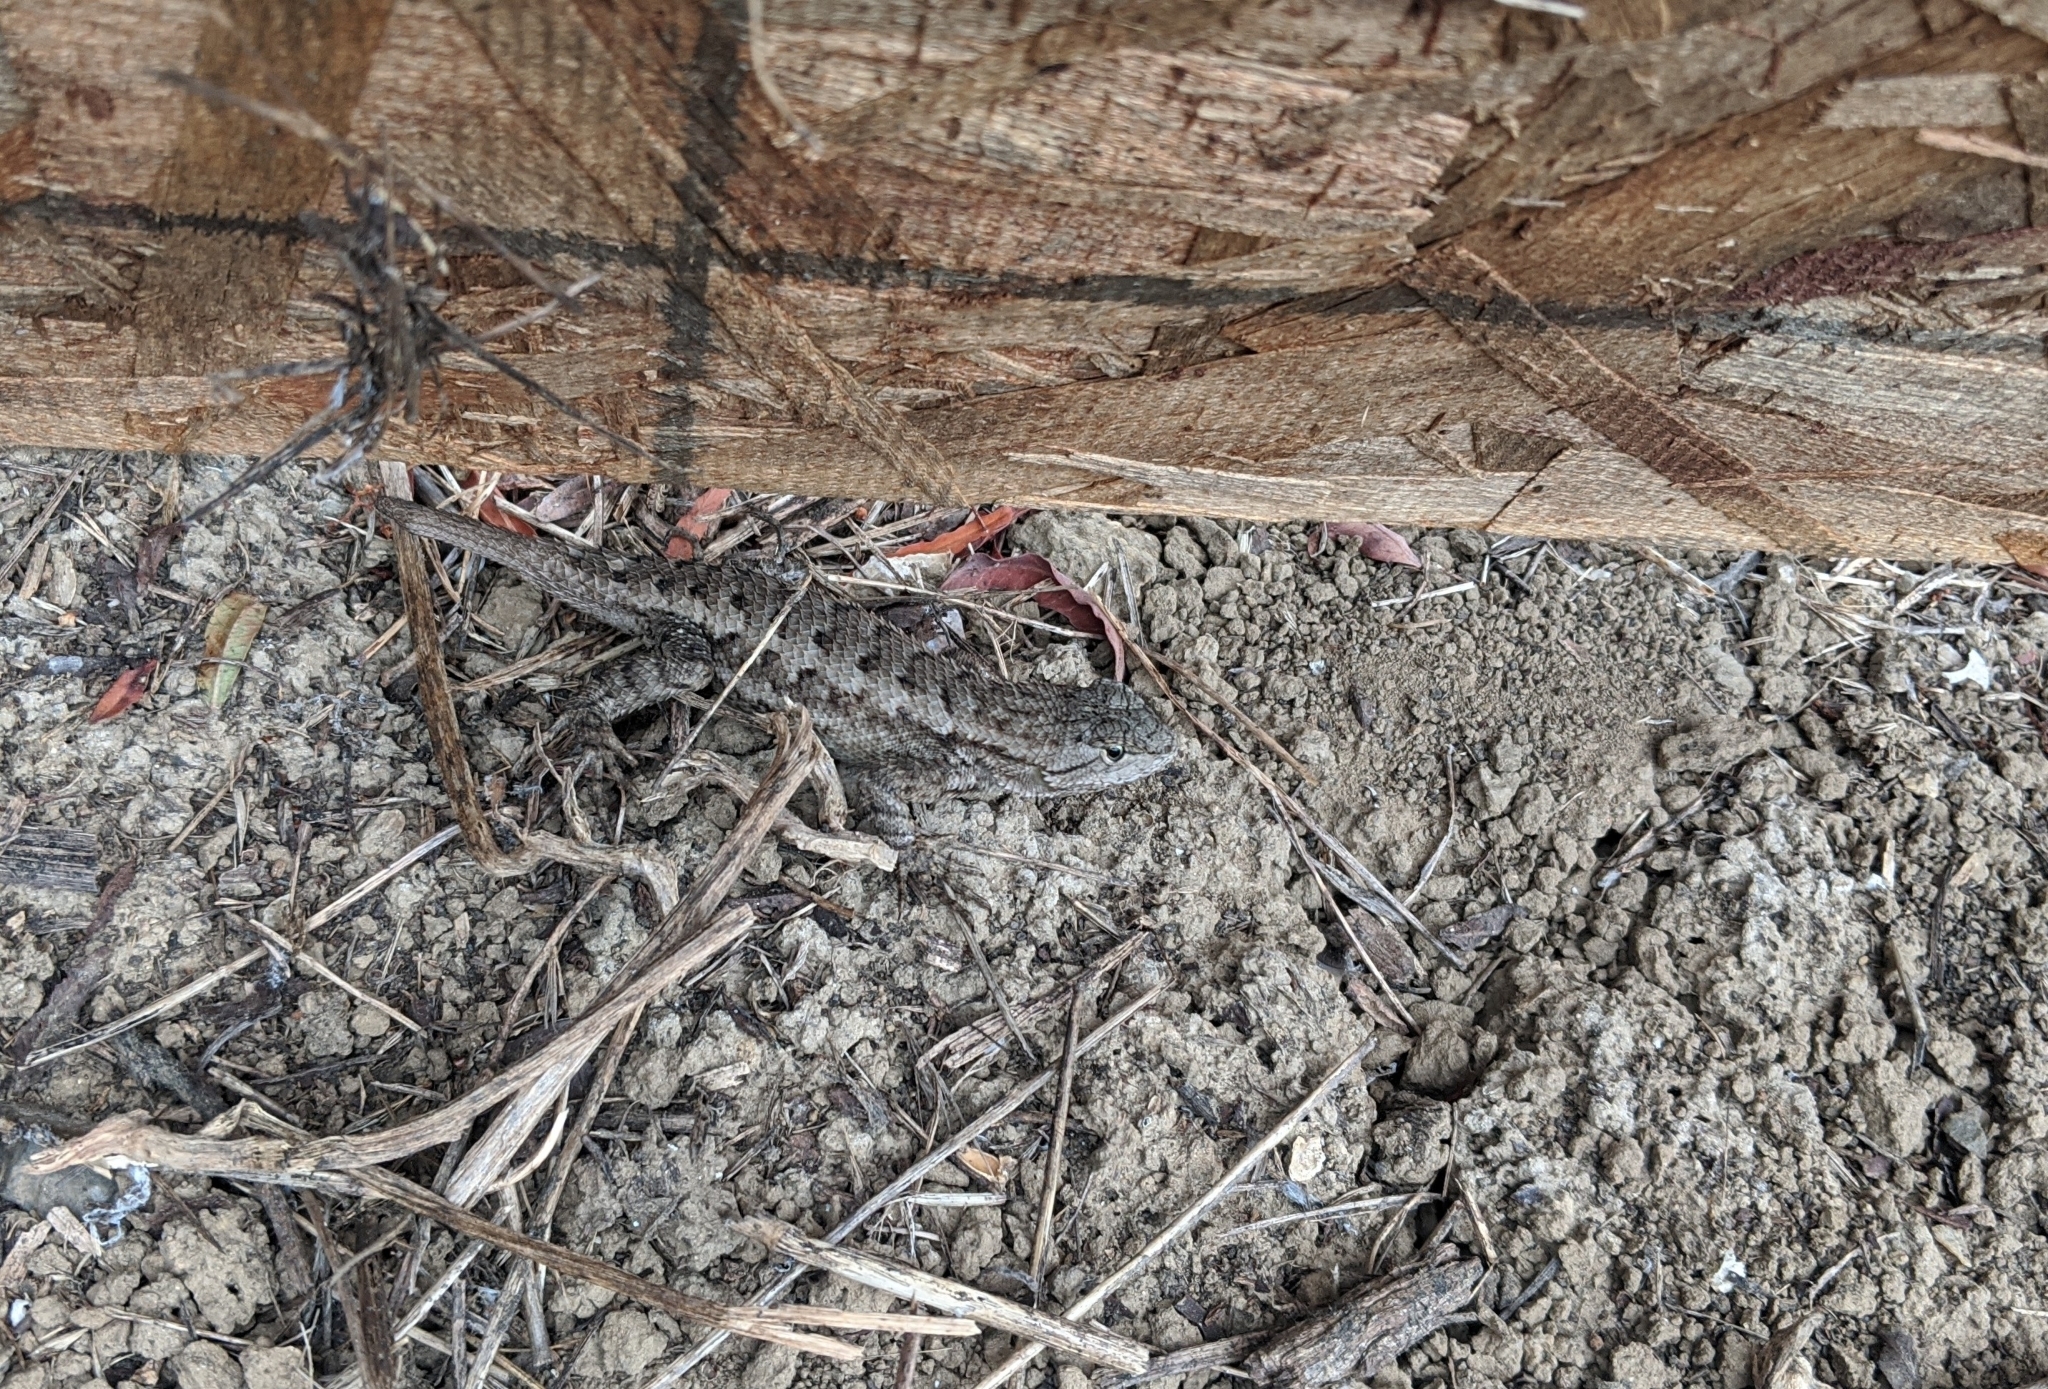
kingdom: Animalia
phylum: Chordata
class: Squamata
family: Phrynosomatidae
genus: Sceloporus
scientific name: Sceloporus occidentalis
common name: Western fence lizard
